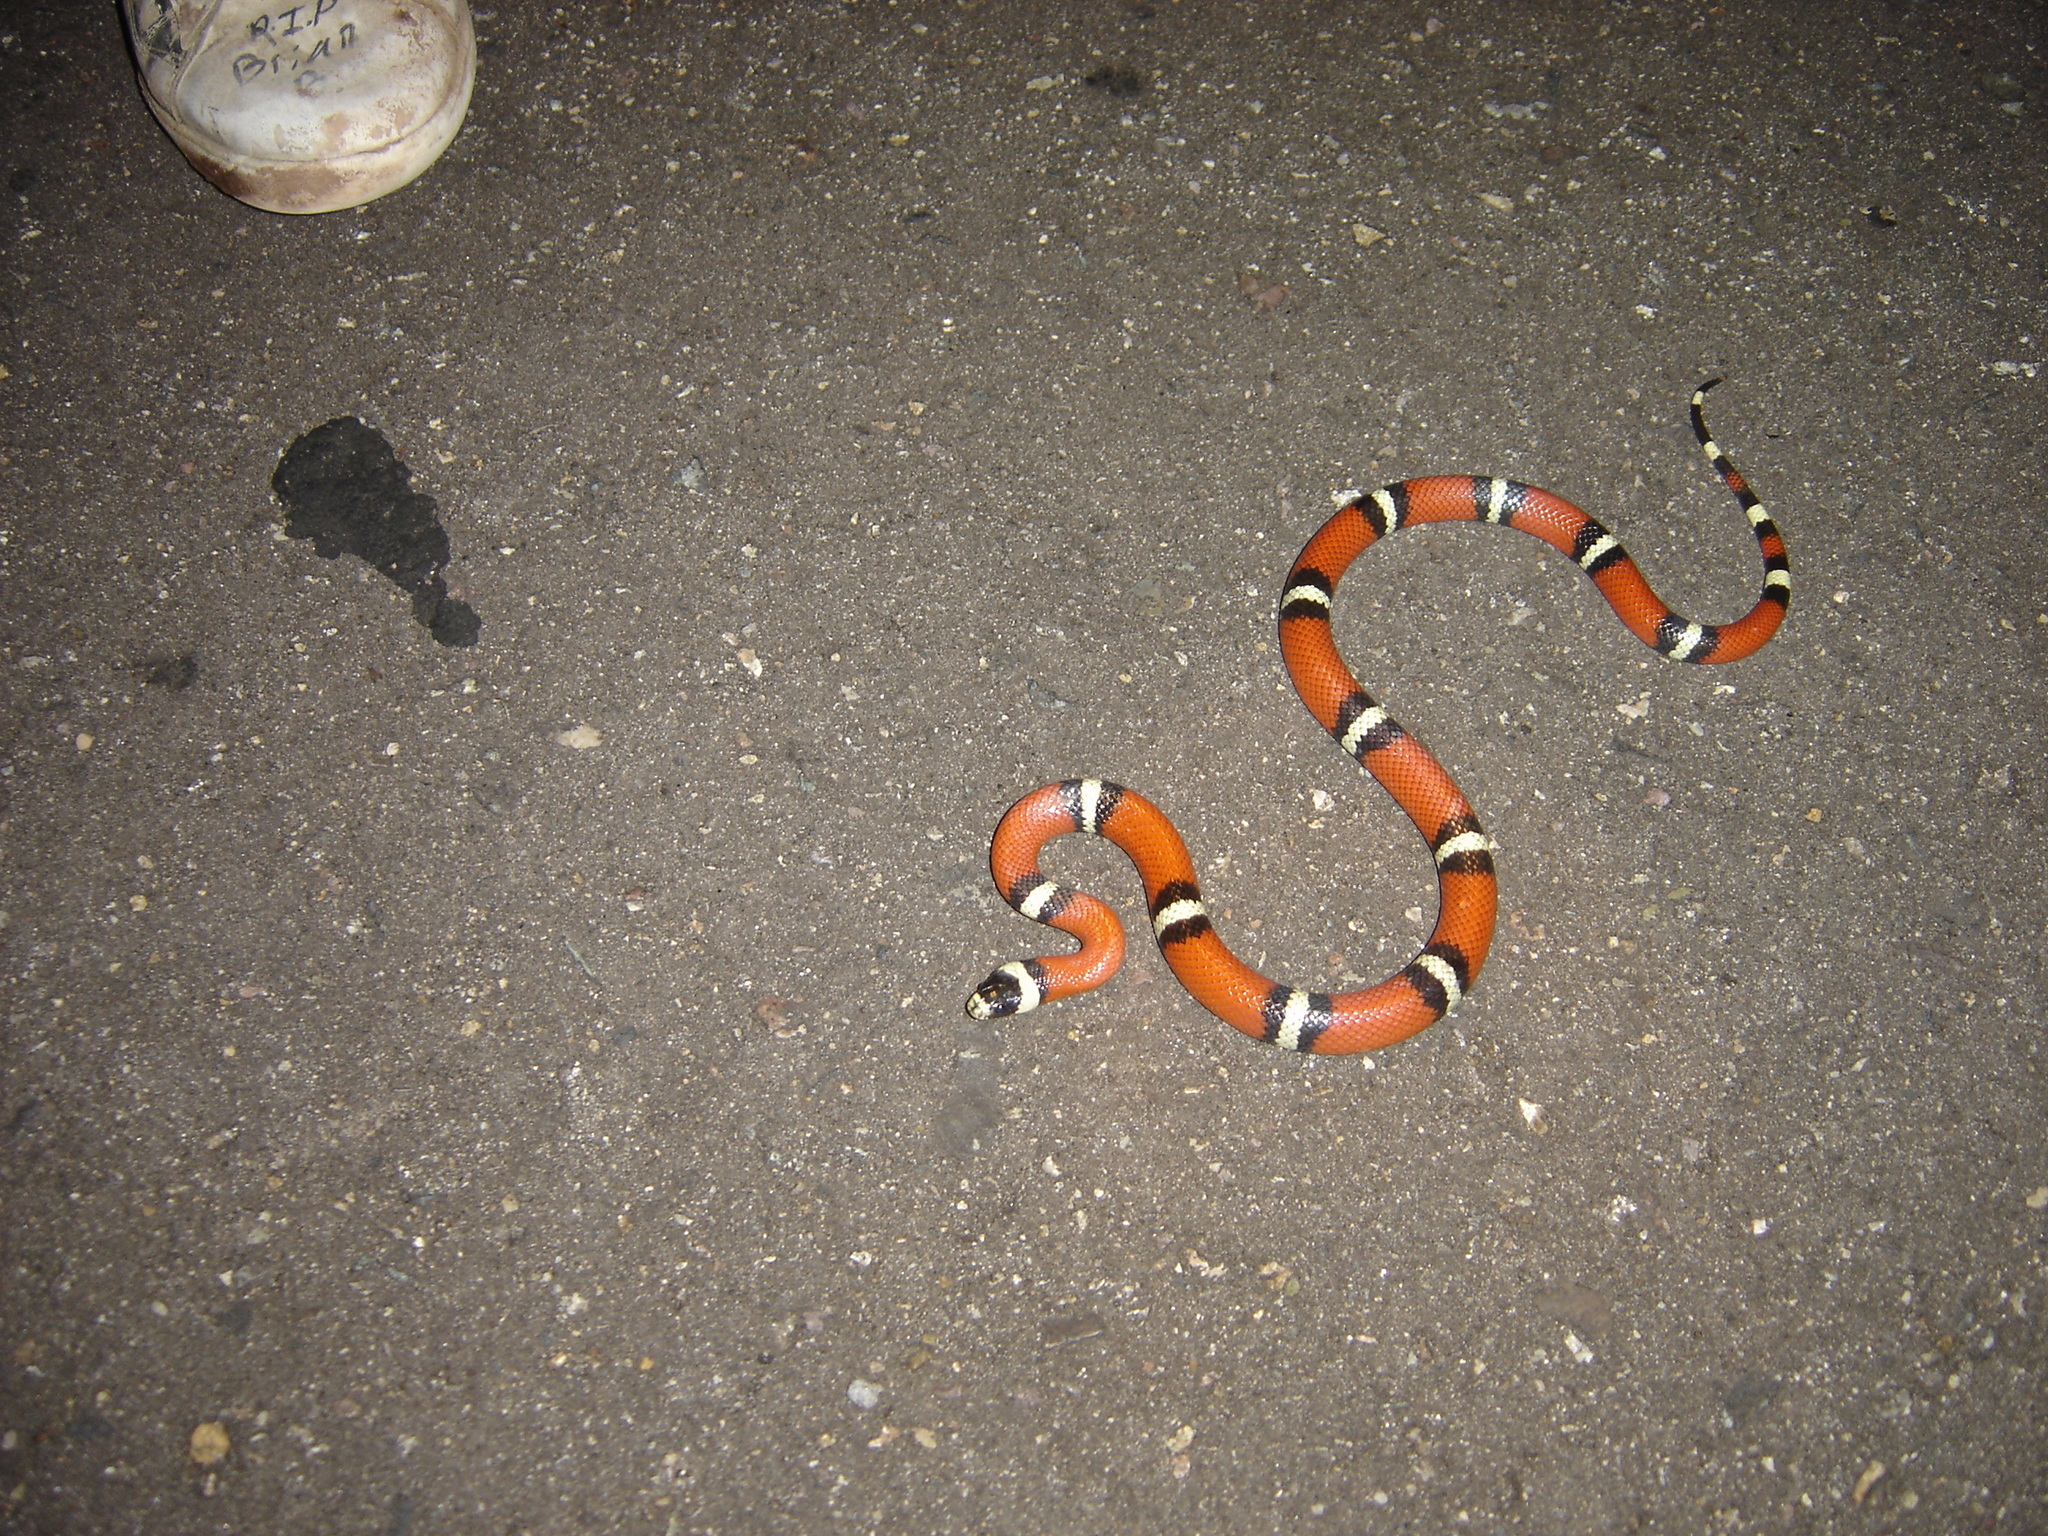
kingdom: Animalia
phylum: Chordata
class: Squamata
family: Colubridae
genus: Lampropeltis
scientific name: Lampropeltis polyzona
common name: Atlantic central american milksnake
